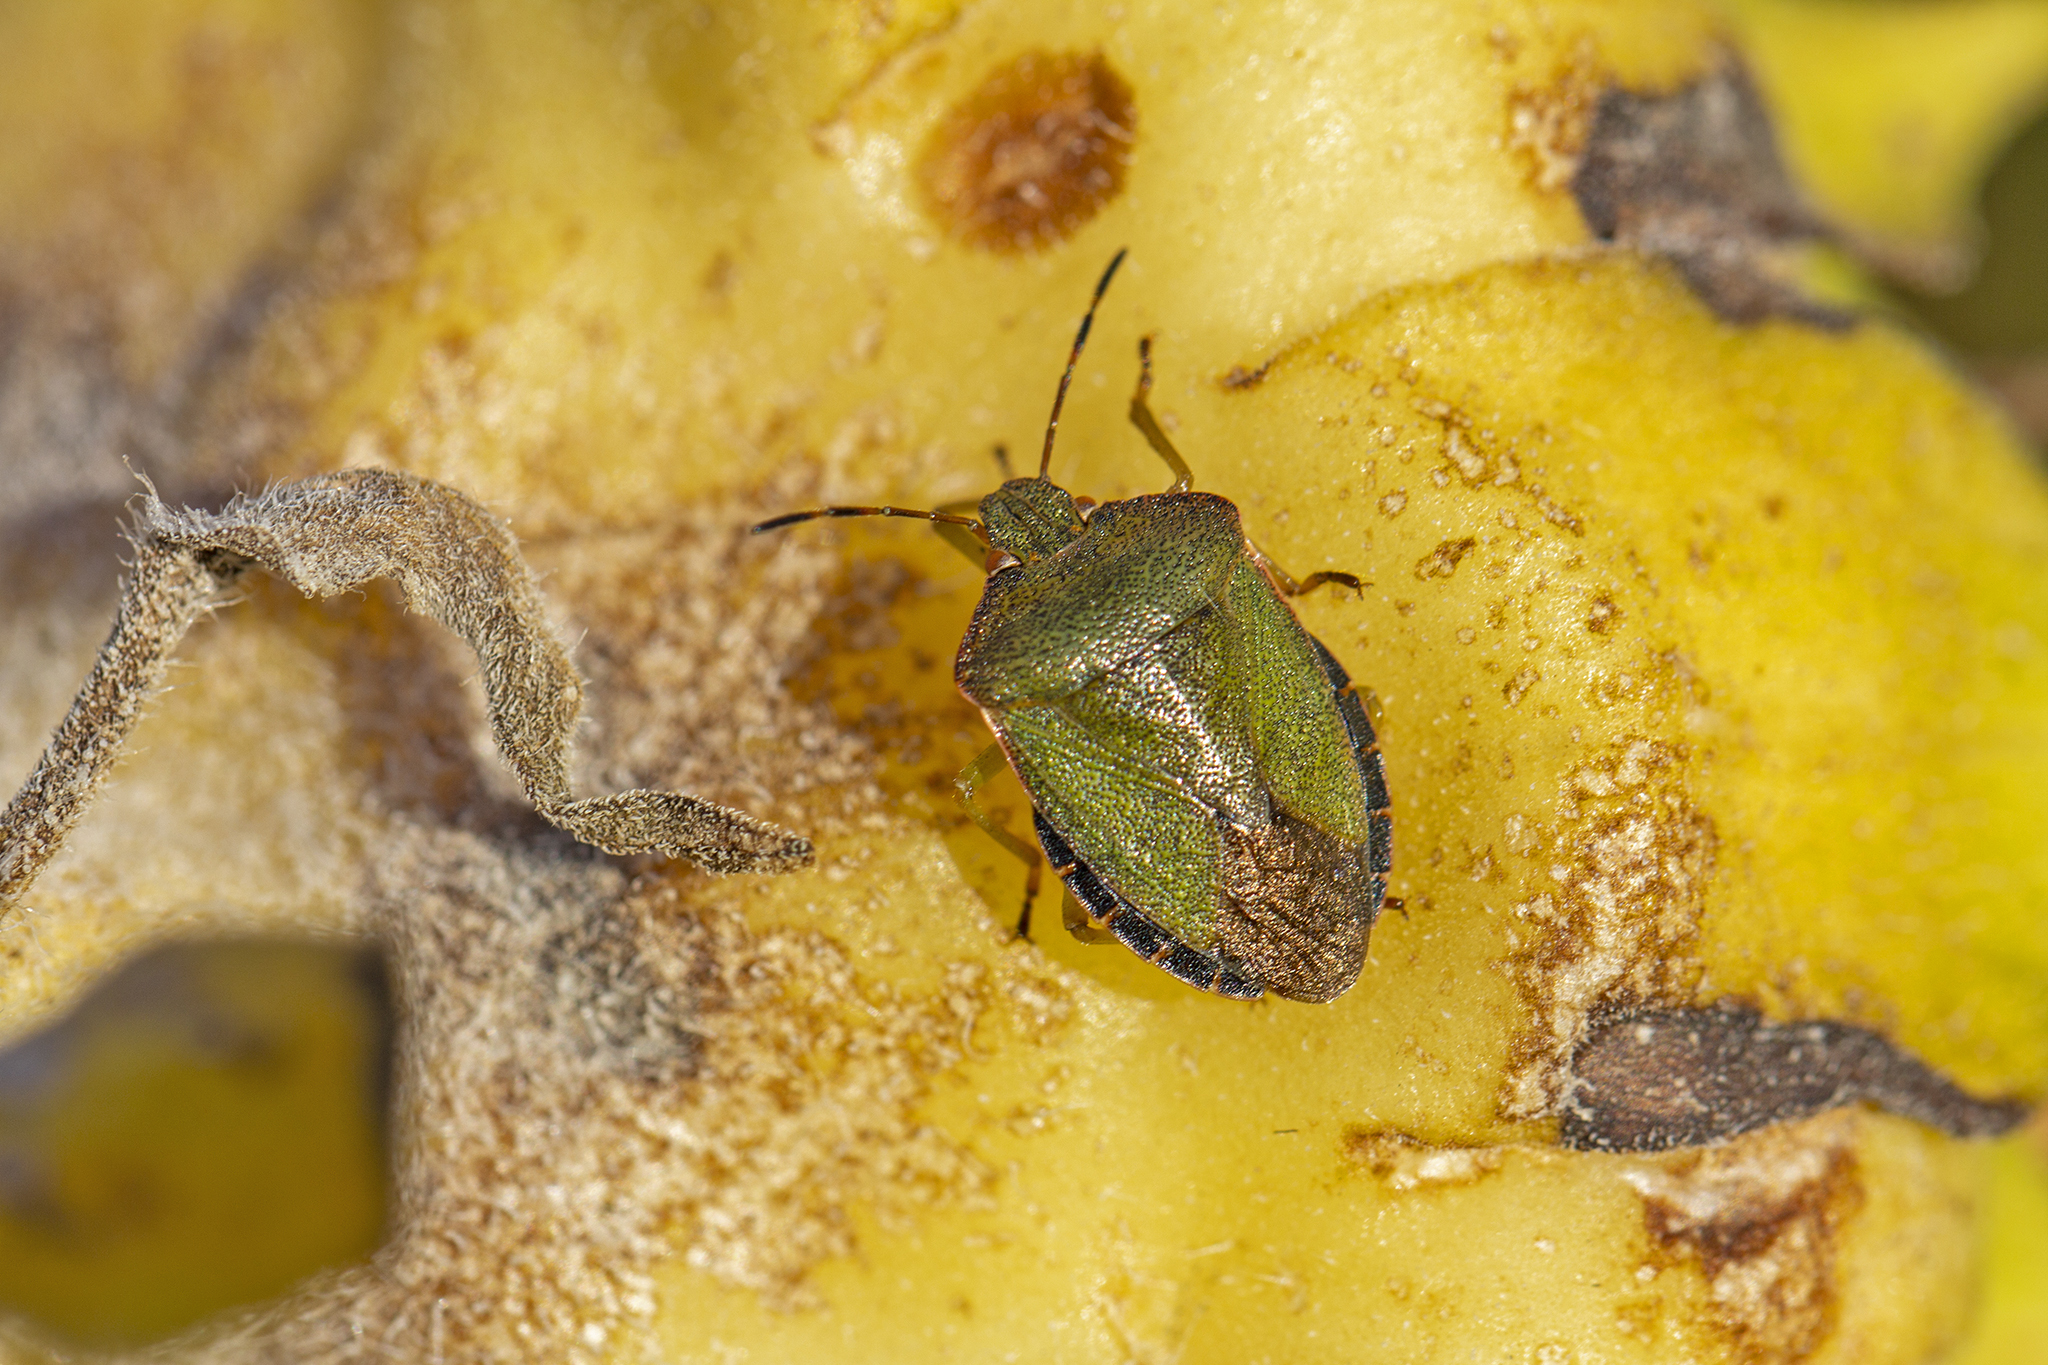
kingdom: Animalia
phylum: Arthropoda
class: Insecta
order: Hemiptera
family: Pentatomidae
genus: Palomena
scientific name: Palomena prasina
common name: Green shieldbug
